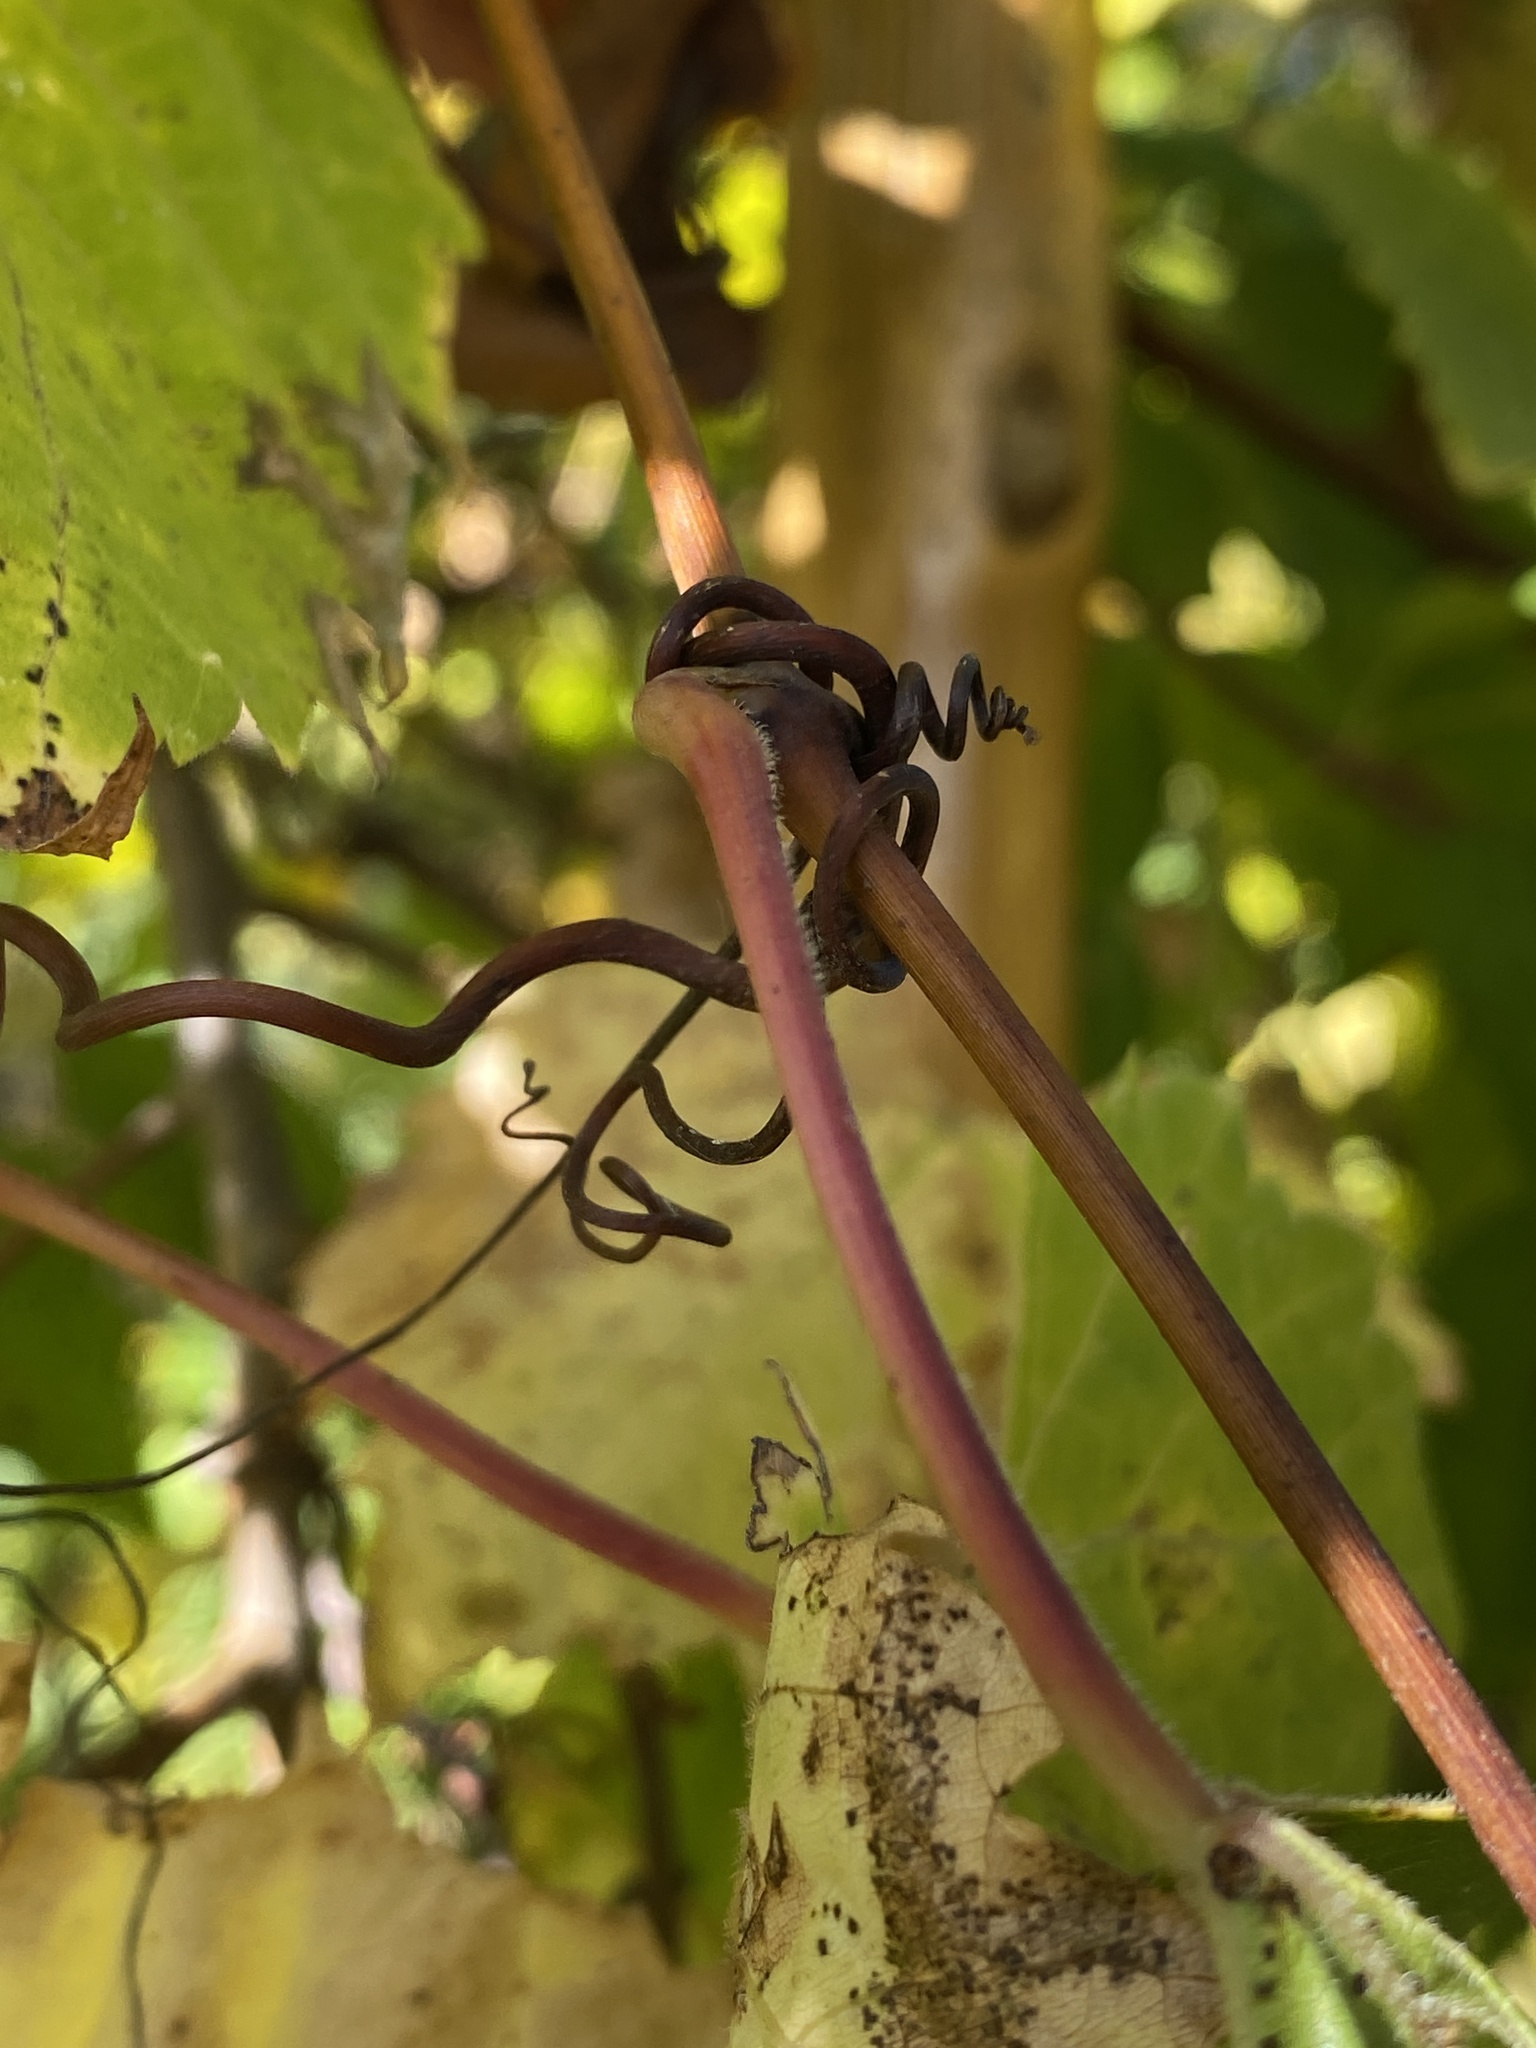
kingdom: Plantae
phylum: Tracheophyta
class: Magnoliopsida
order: Vitales
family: Vitaceae
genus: Vitis
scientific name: Vitis riparia
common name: Frost grape
